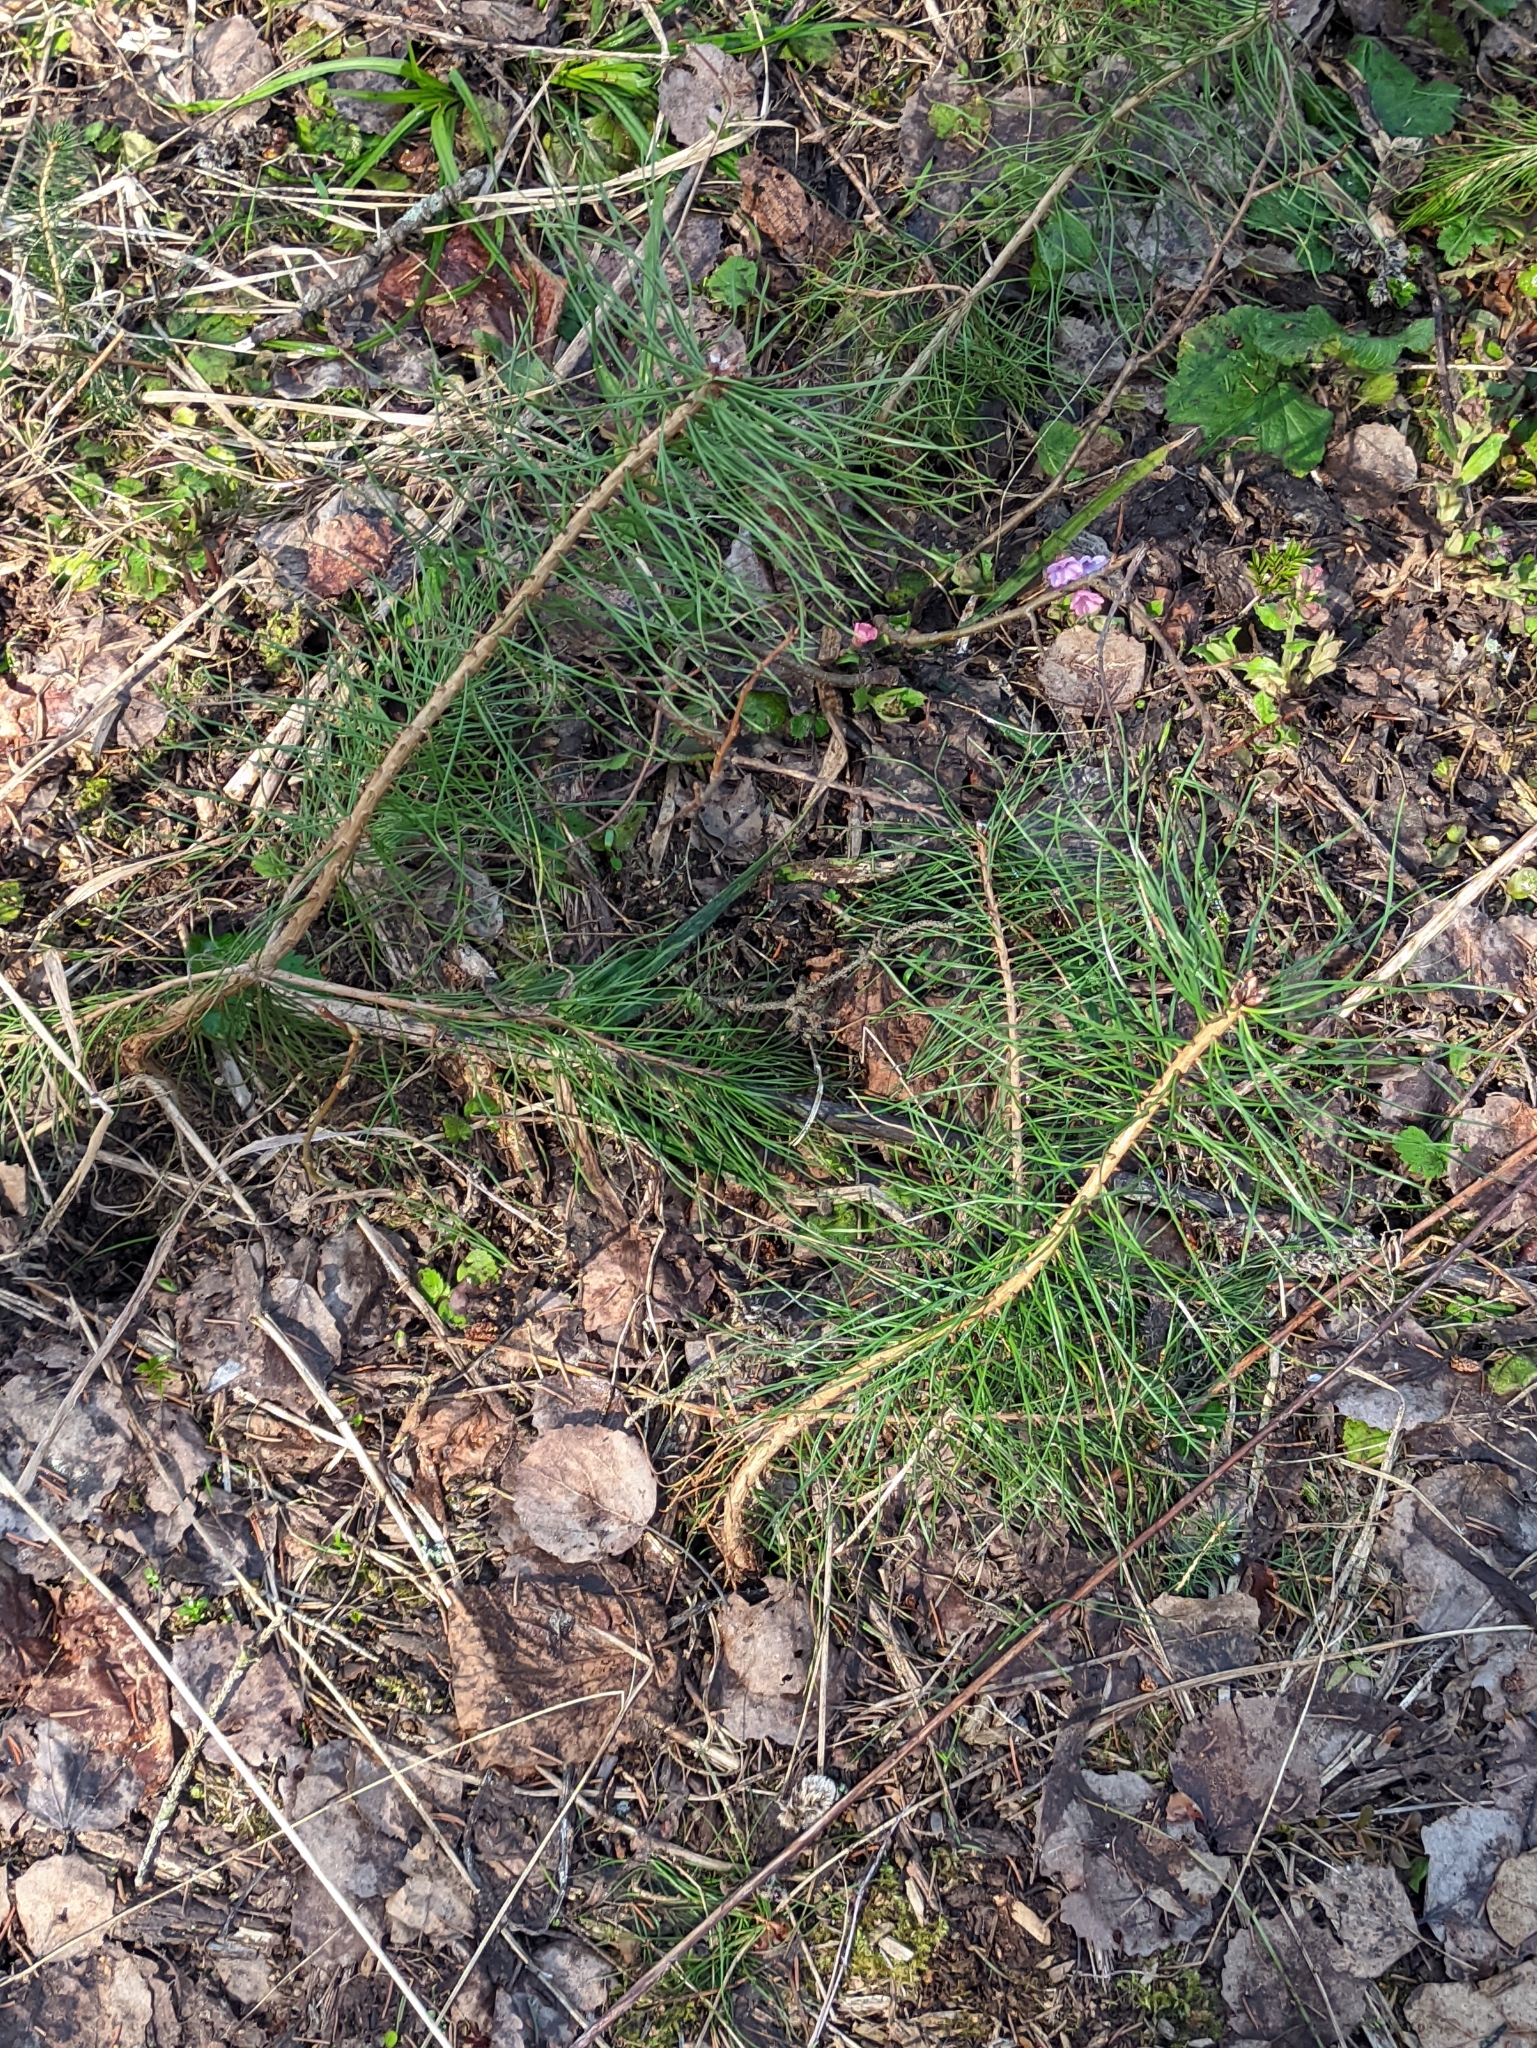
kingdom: Plantae
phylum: Tracheophyta
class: Pinopsida
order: Pinales
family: Pinaceae
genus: Pinus
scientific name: Pinus sylvestris
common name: Scots pine
